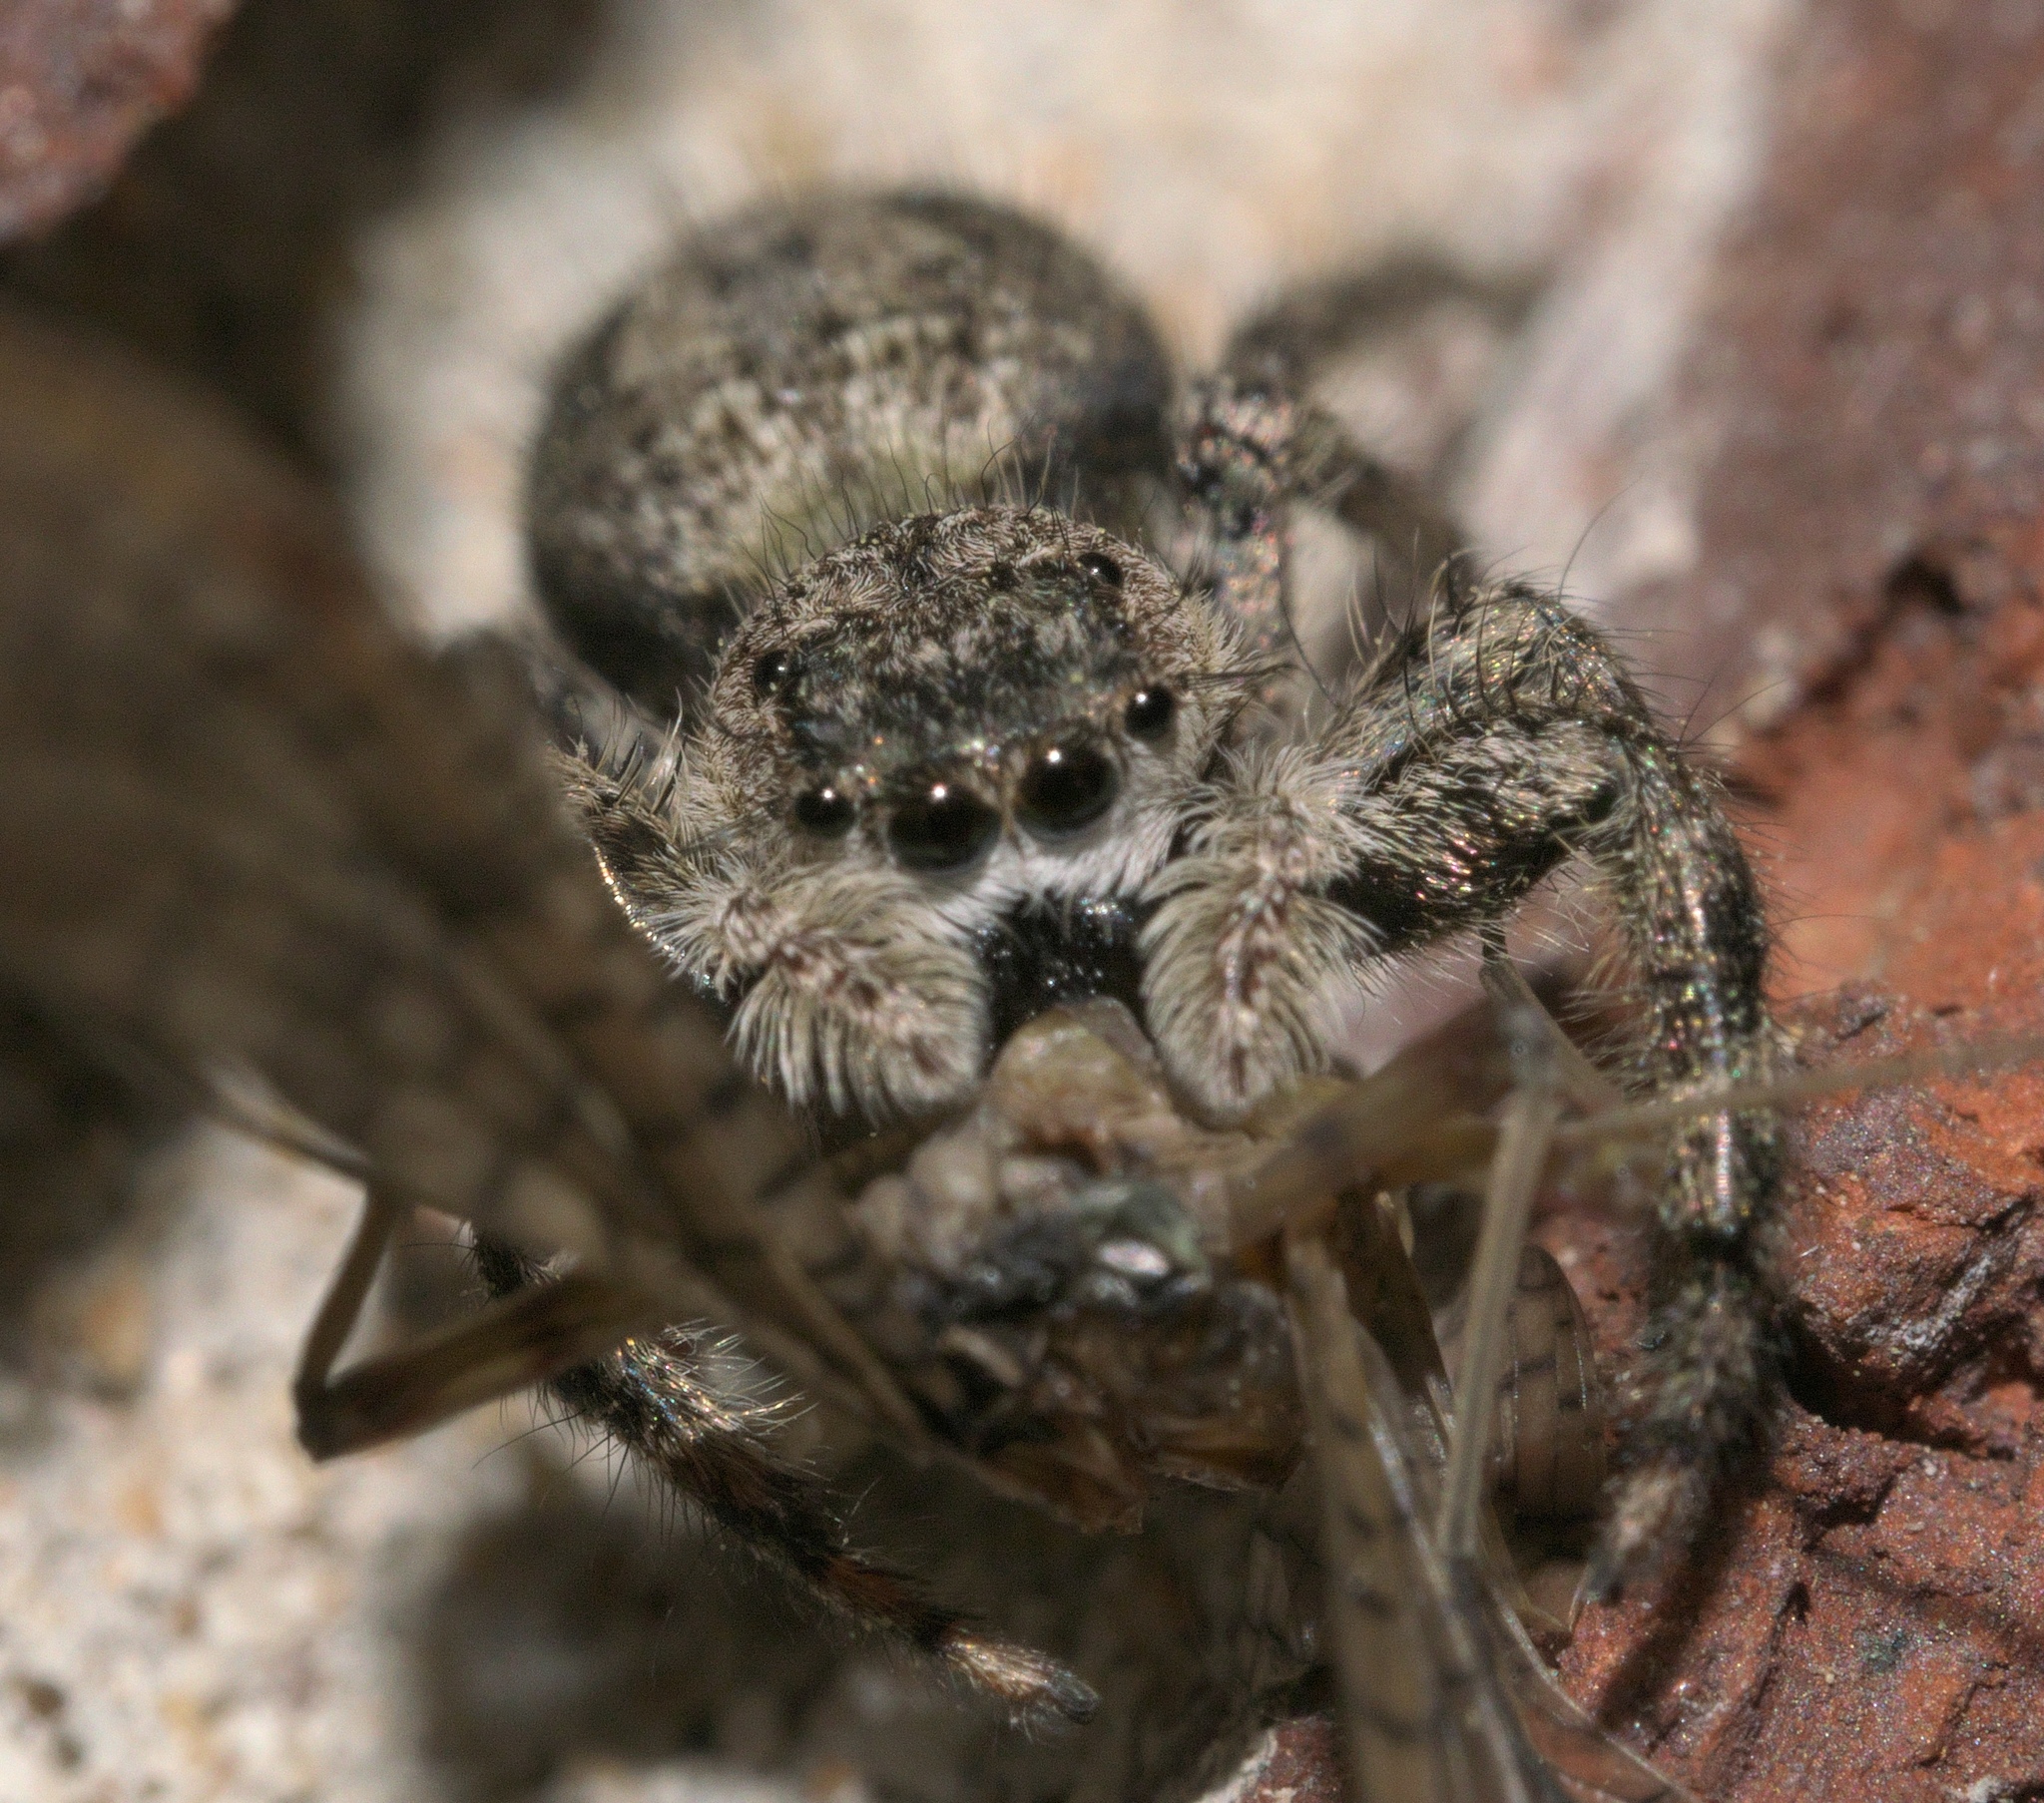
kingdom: Animalia
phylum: Arthropoda
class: Arachnida
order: Araneae
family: Salticidae
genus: Platycryptus
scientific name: Platycryptus undatus
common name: Tan jumping spider
